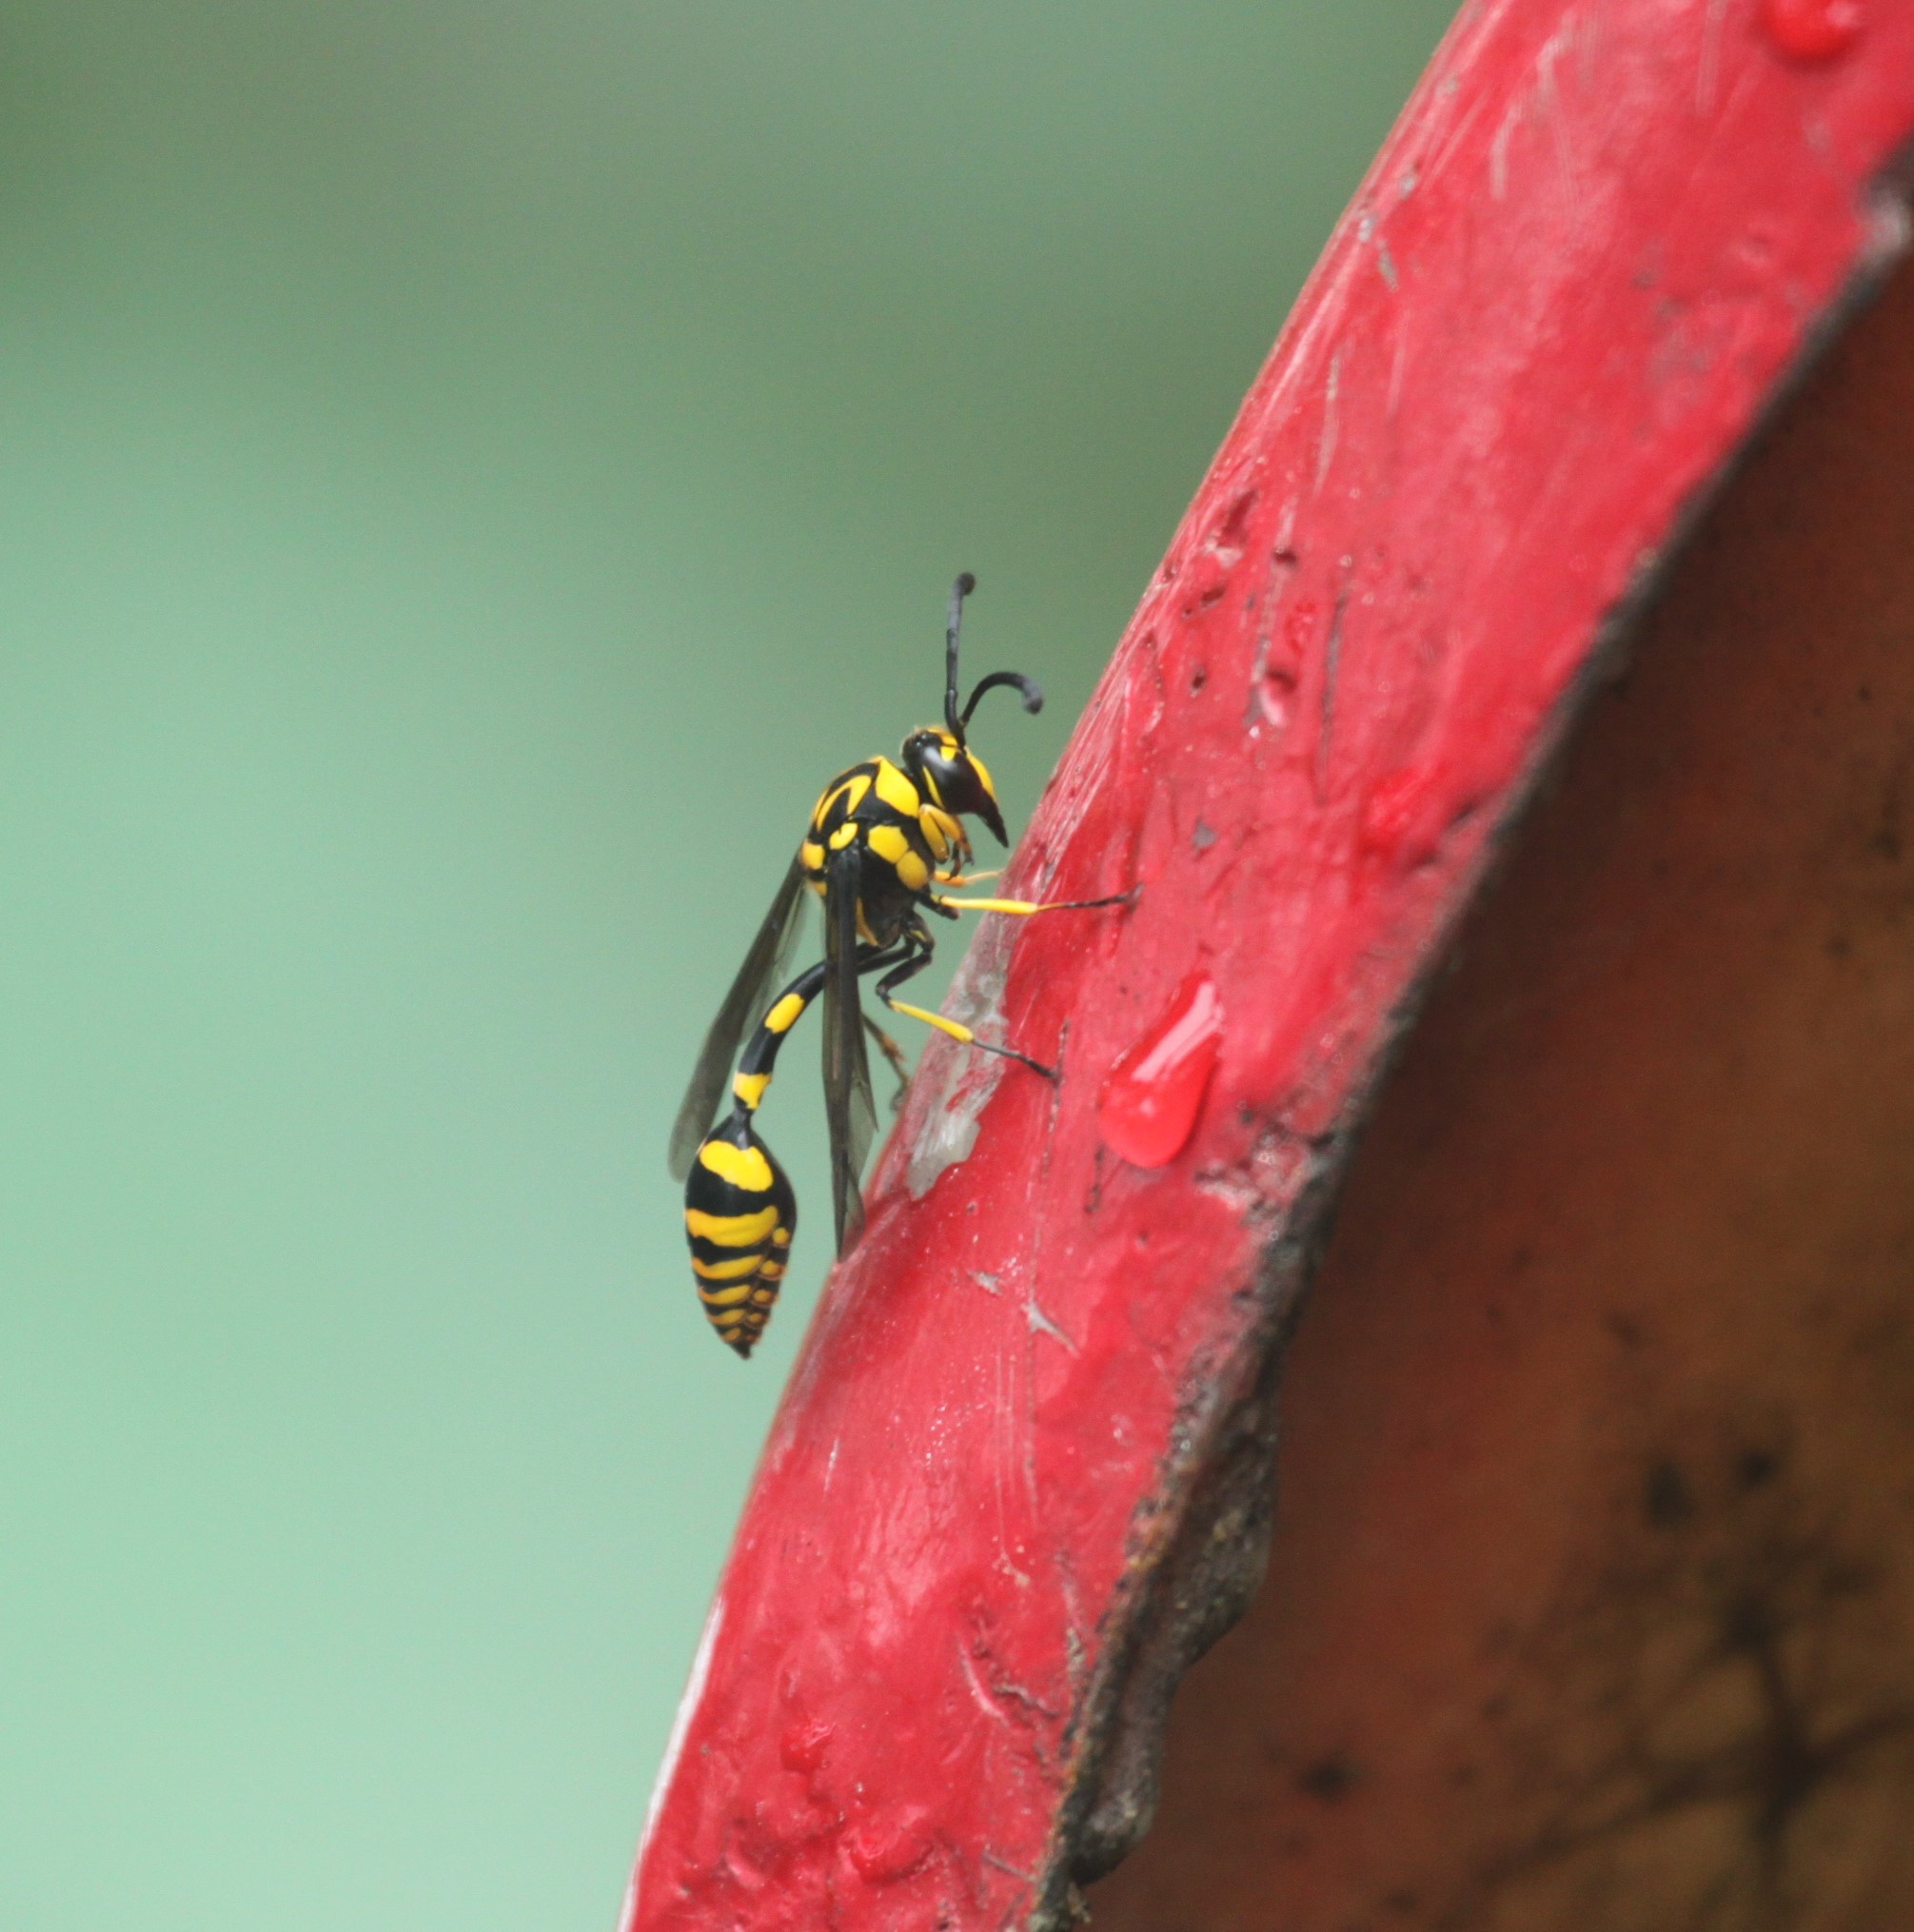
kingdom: Animalia
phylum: Arthropoda
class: Insecta
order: Hymenoptera
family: Eumenidae
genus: Phimenes
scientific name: Phimenes flavopictus
